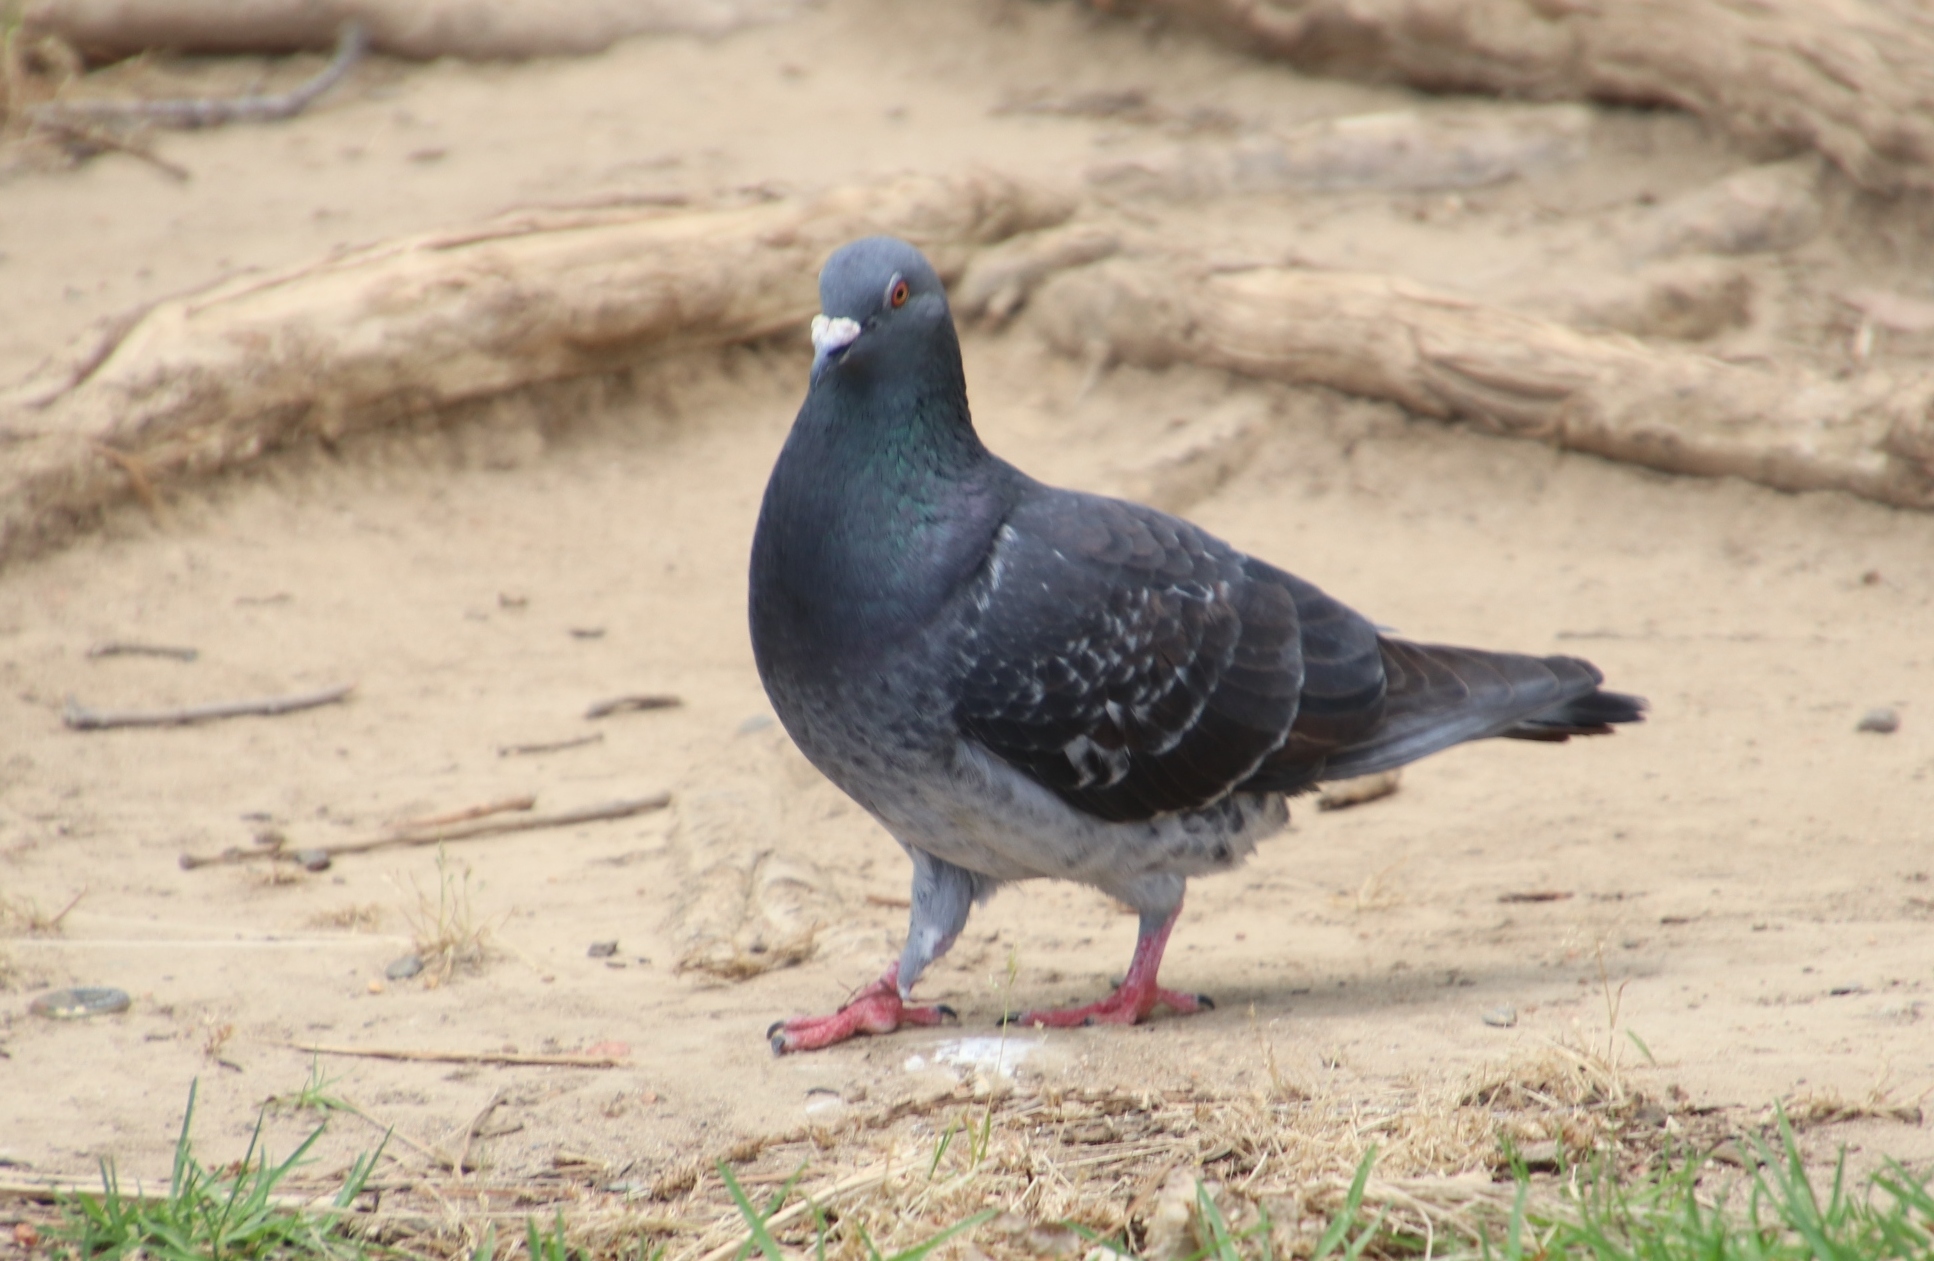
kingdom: Animalia
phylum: Chordata
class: Aves
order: Columbiformes
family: Columbidae
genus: Columba
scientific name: Columba livia
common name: Rock pigeon
